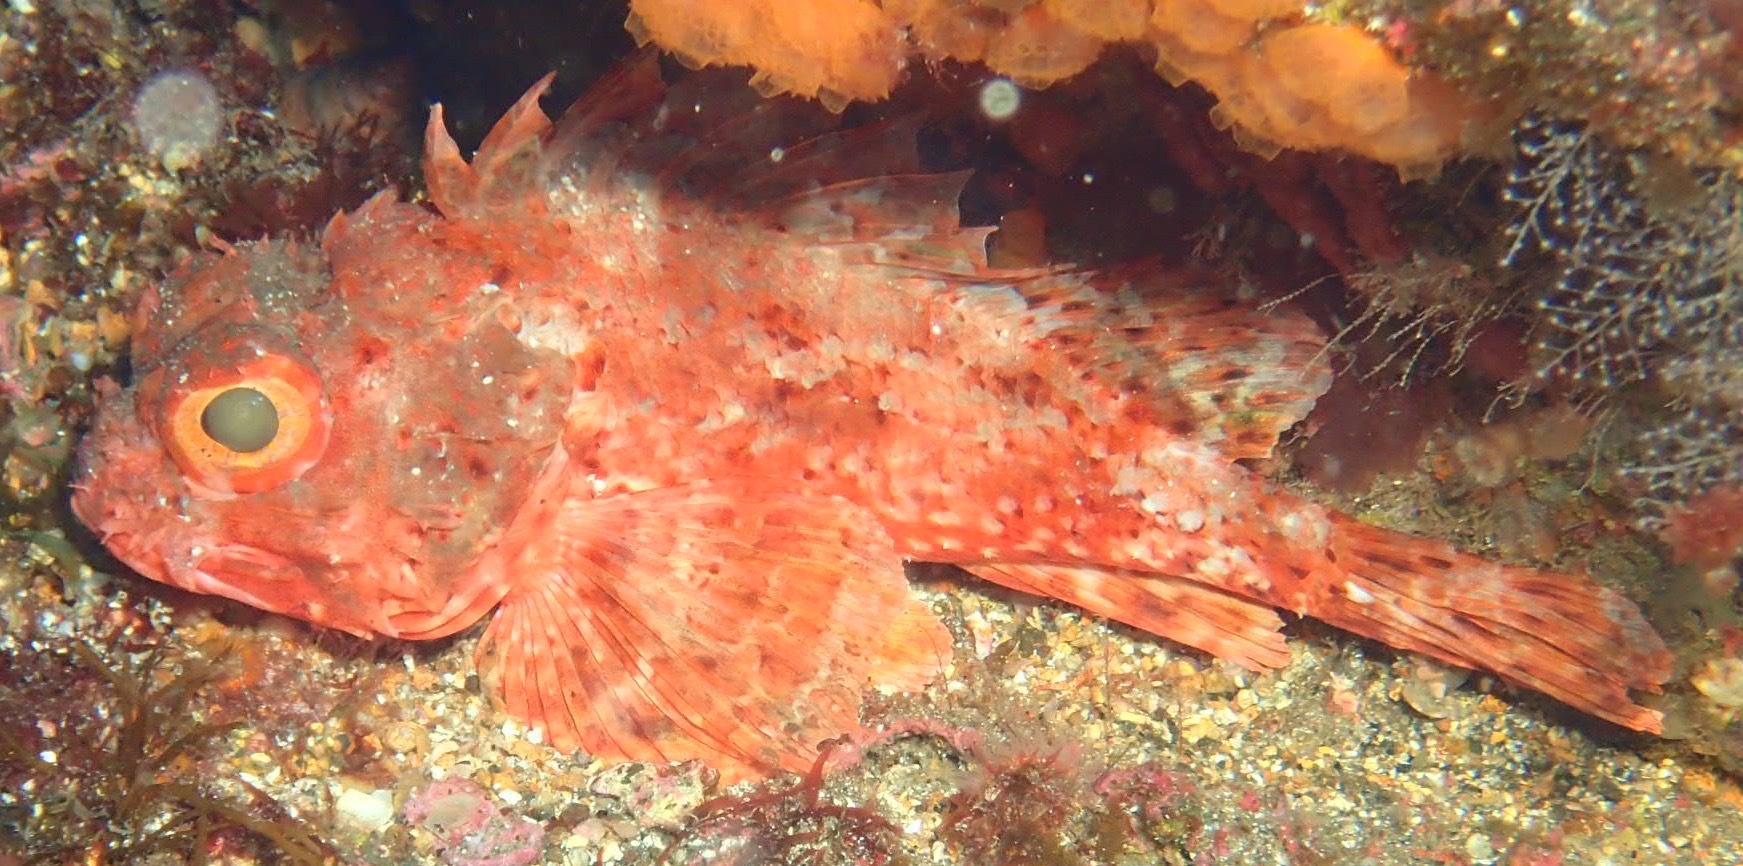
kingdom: Animalia
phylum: Chordata
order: Scorpaeniformes
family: Scorpaenidae
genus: Scorpaena
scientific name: Scorpaena notata
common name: Small red scorpionfish
